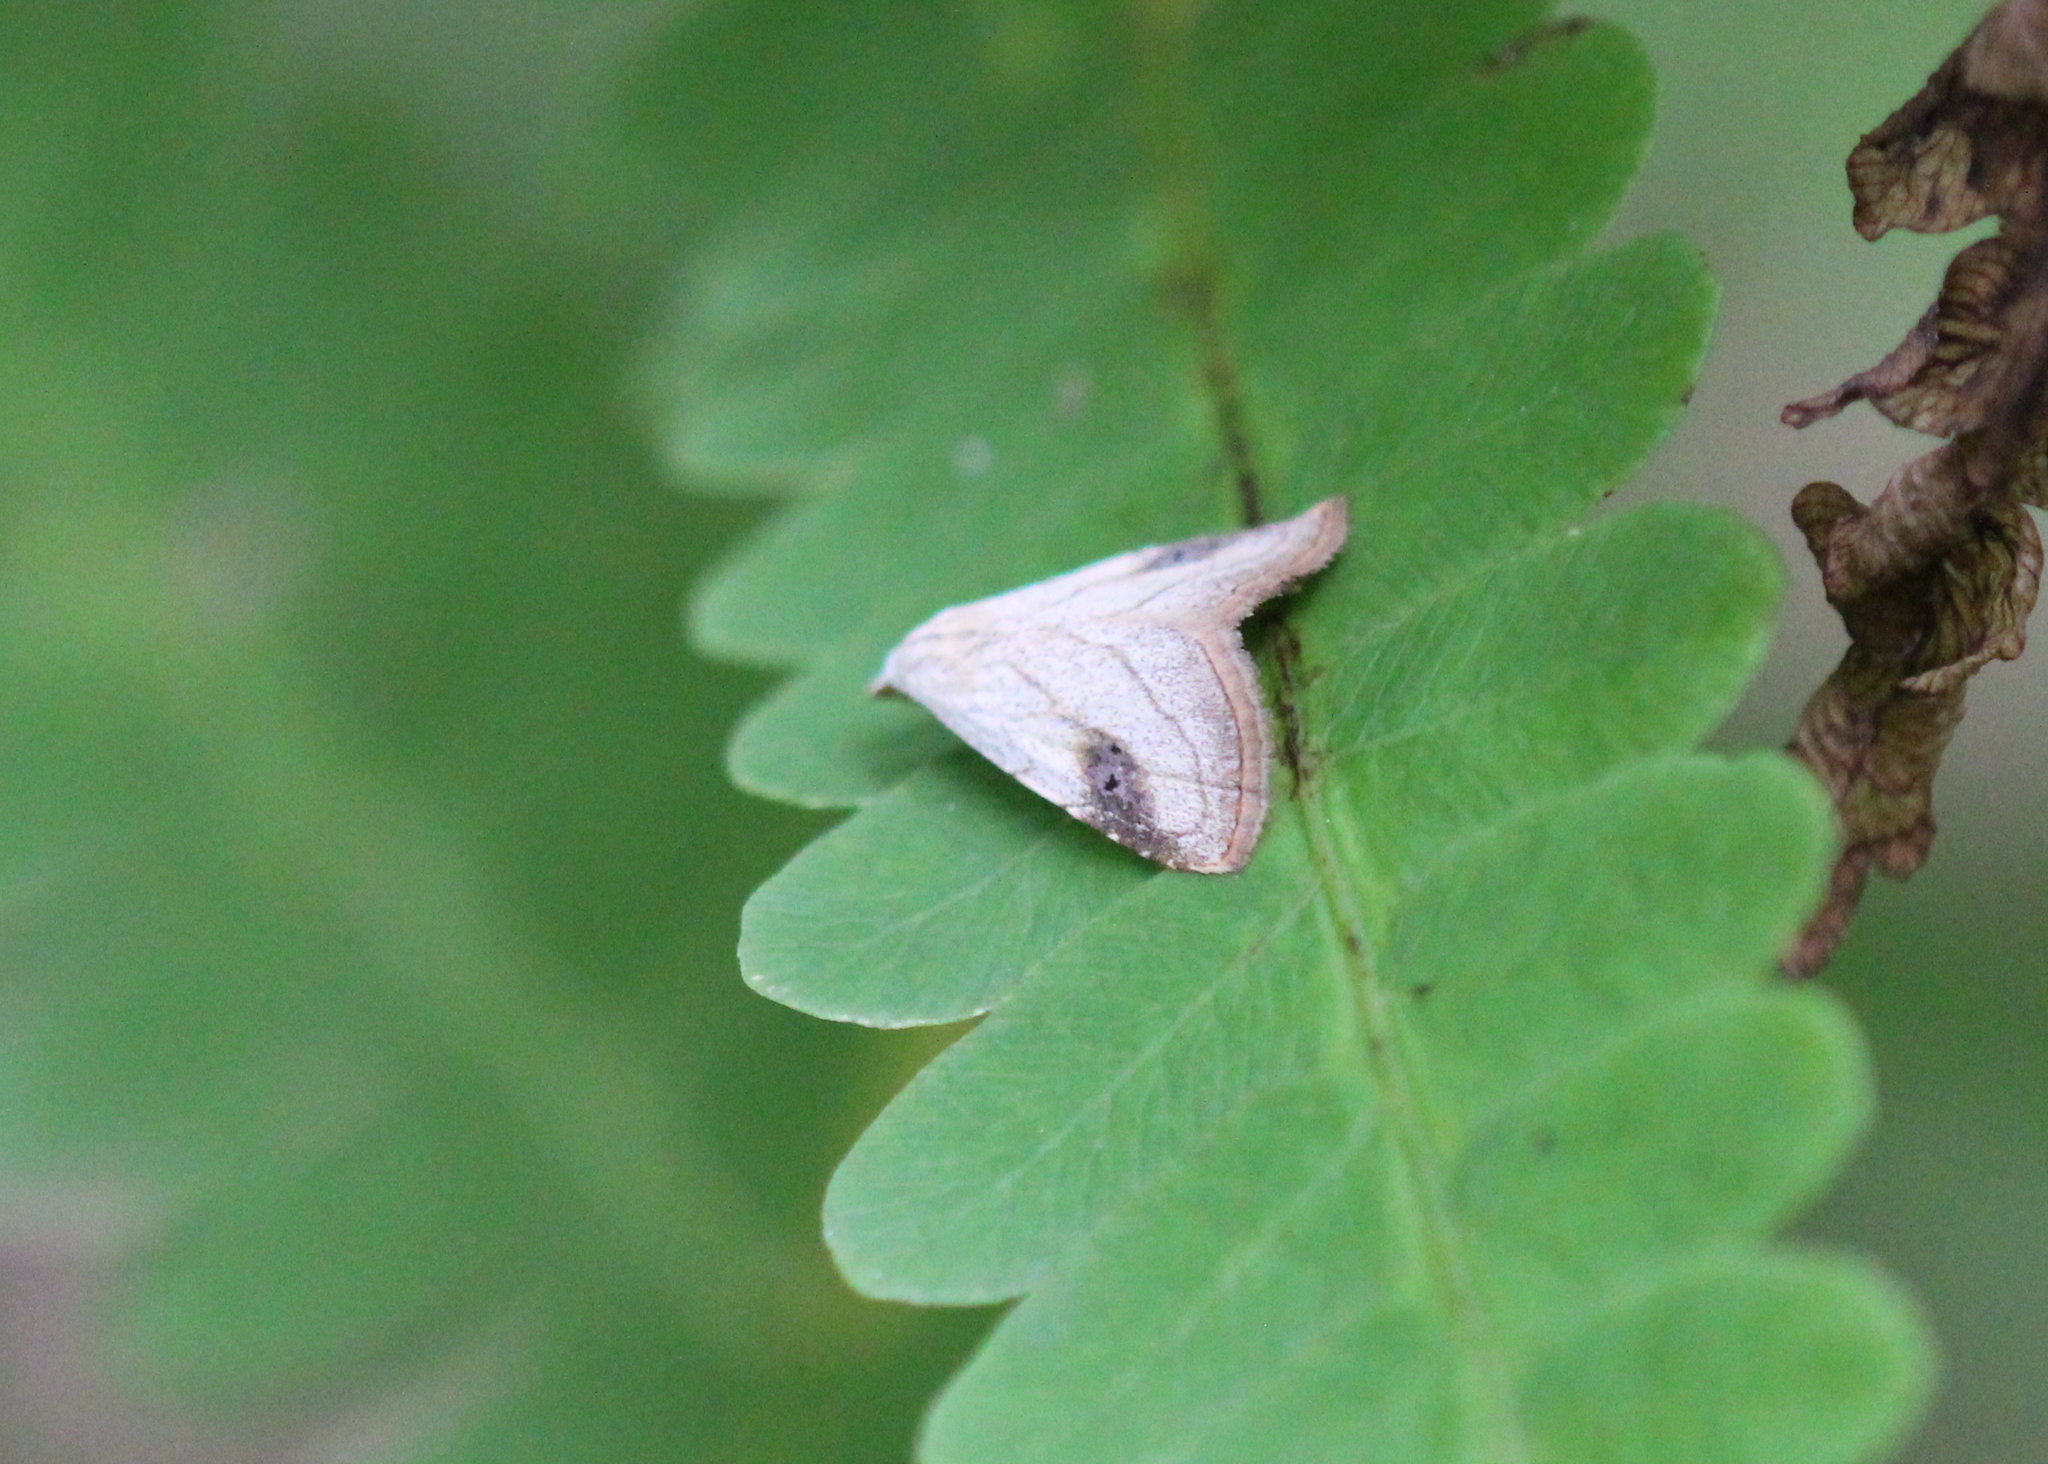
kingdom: Animalia
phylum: Arthropoda
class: Insecta
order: Lepidoptera
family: Erebidae
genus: Rivula
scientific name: Rivula propinqualis
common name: Spotted grass moth
